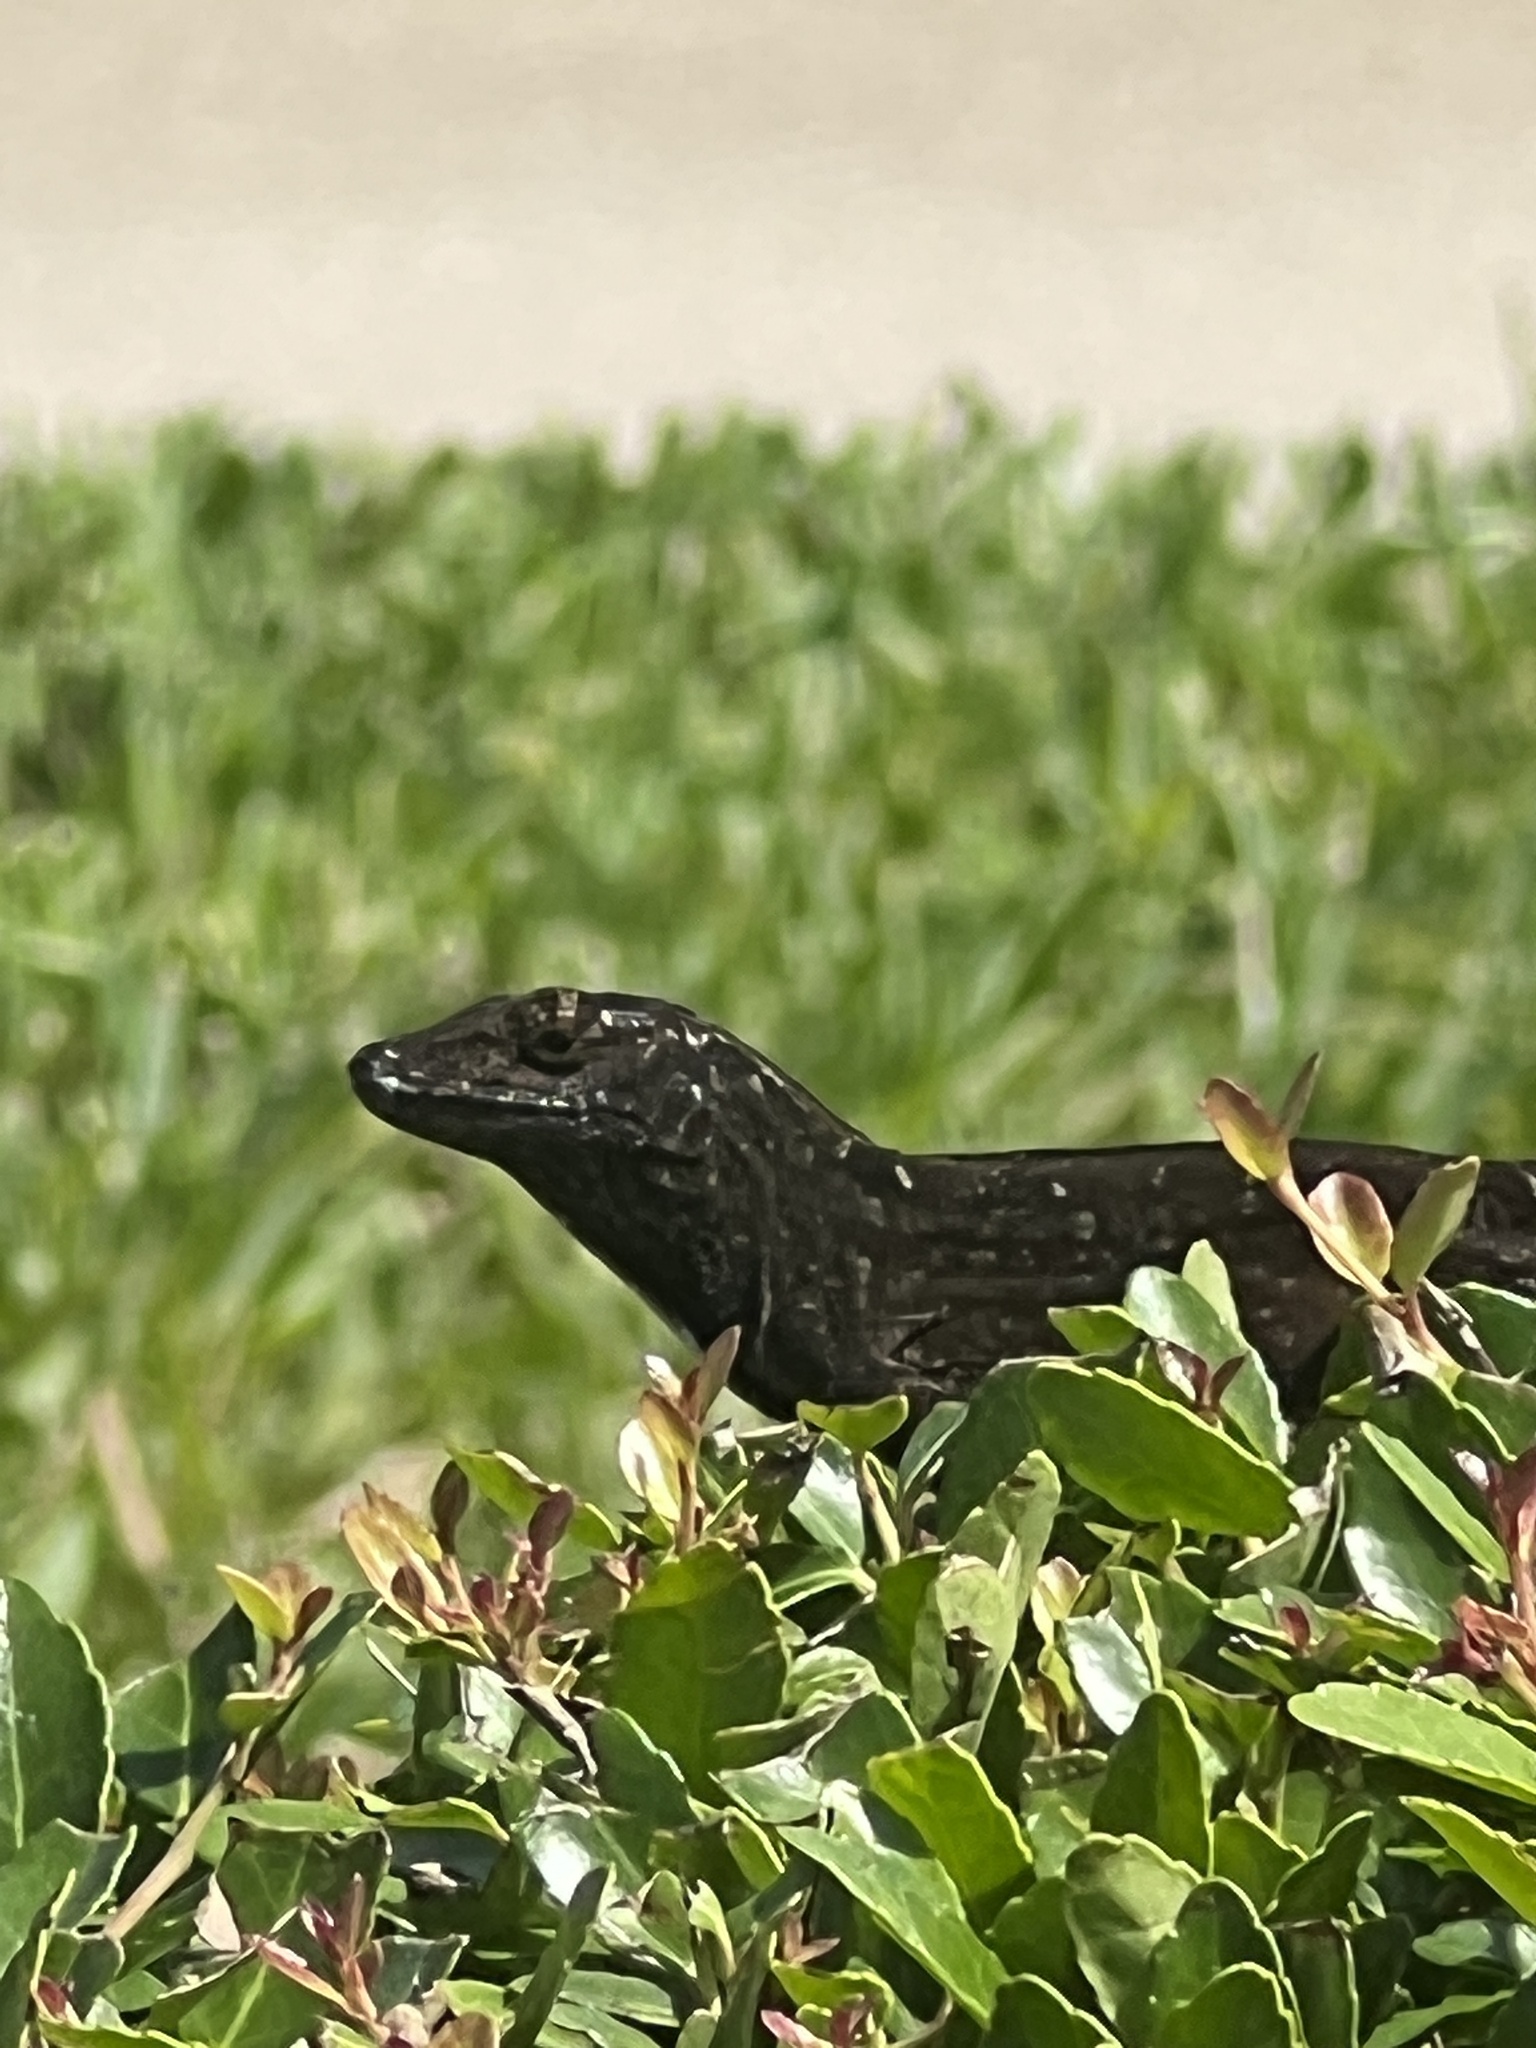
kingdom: Animalia
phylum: Chordata
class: Squamata
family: Dactyloidae
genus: Anolis
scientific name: Anolis sagrei
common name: Brown anole
